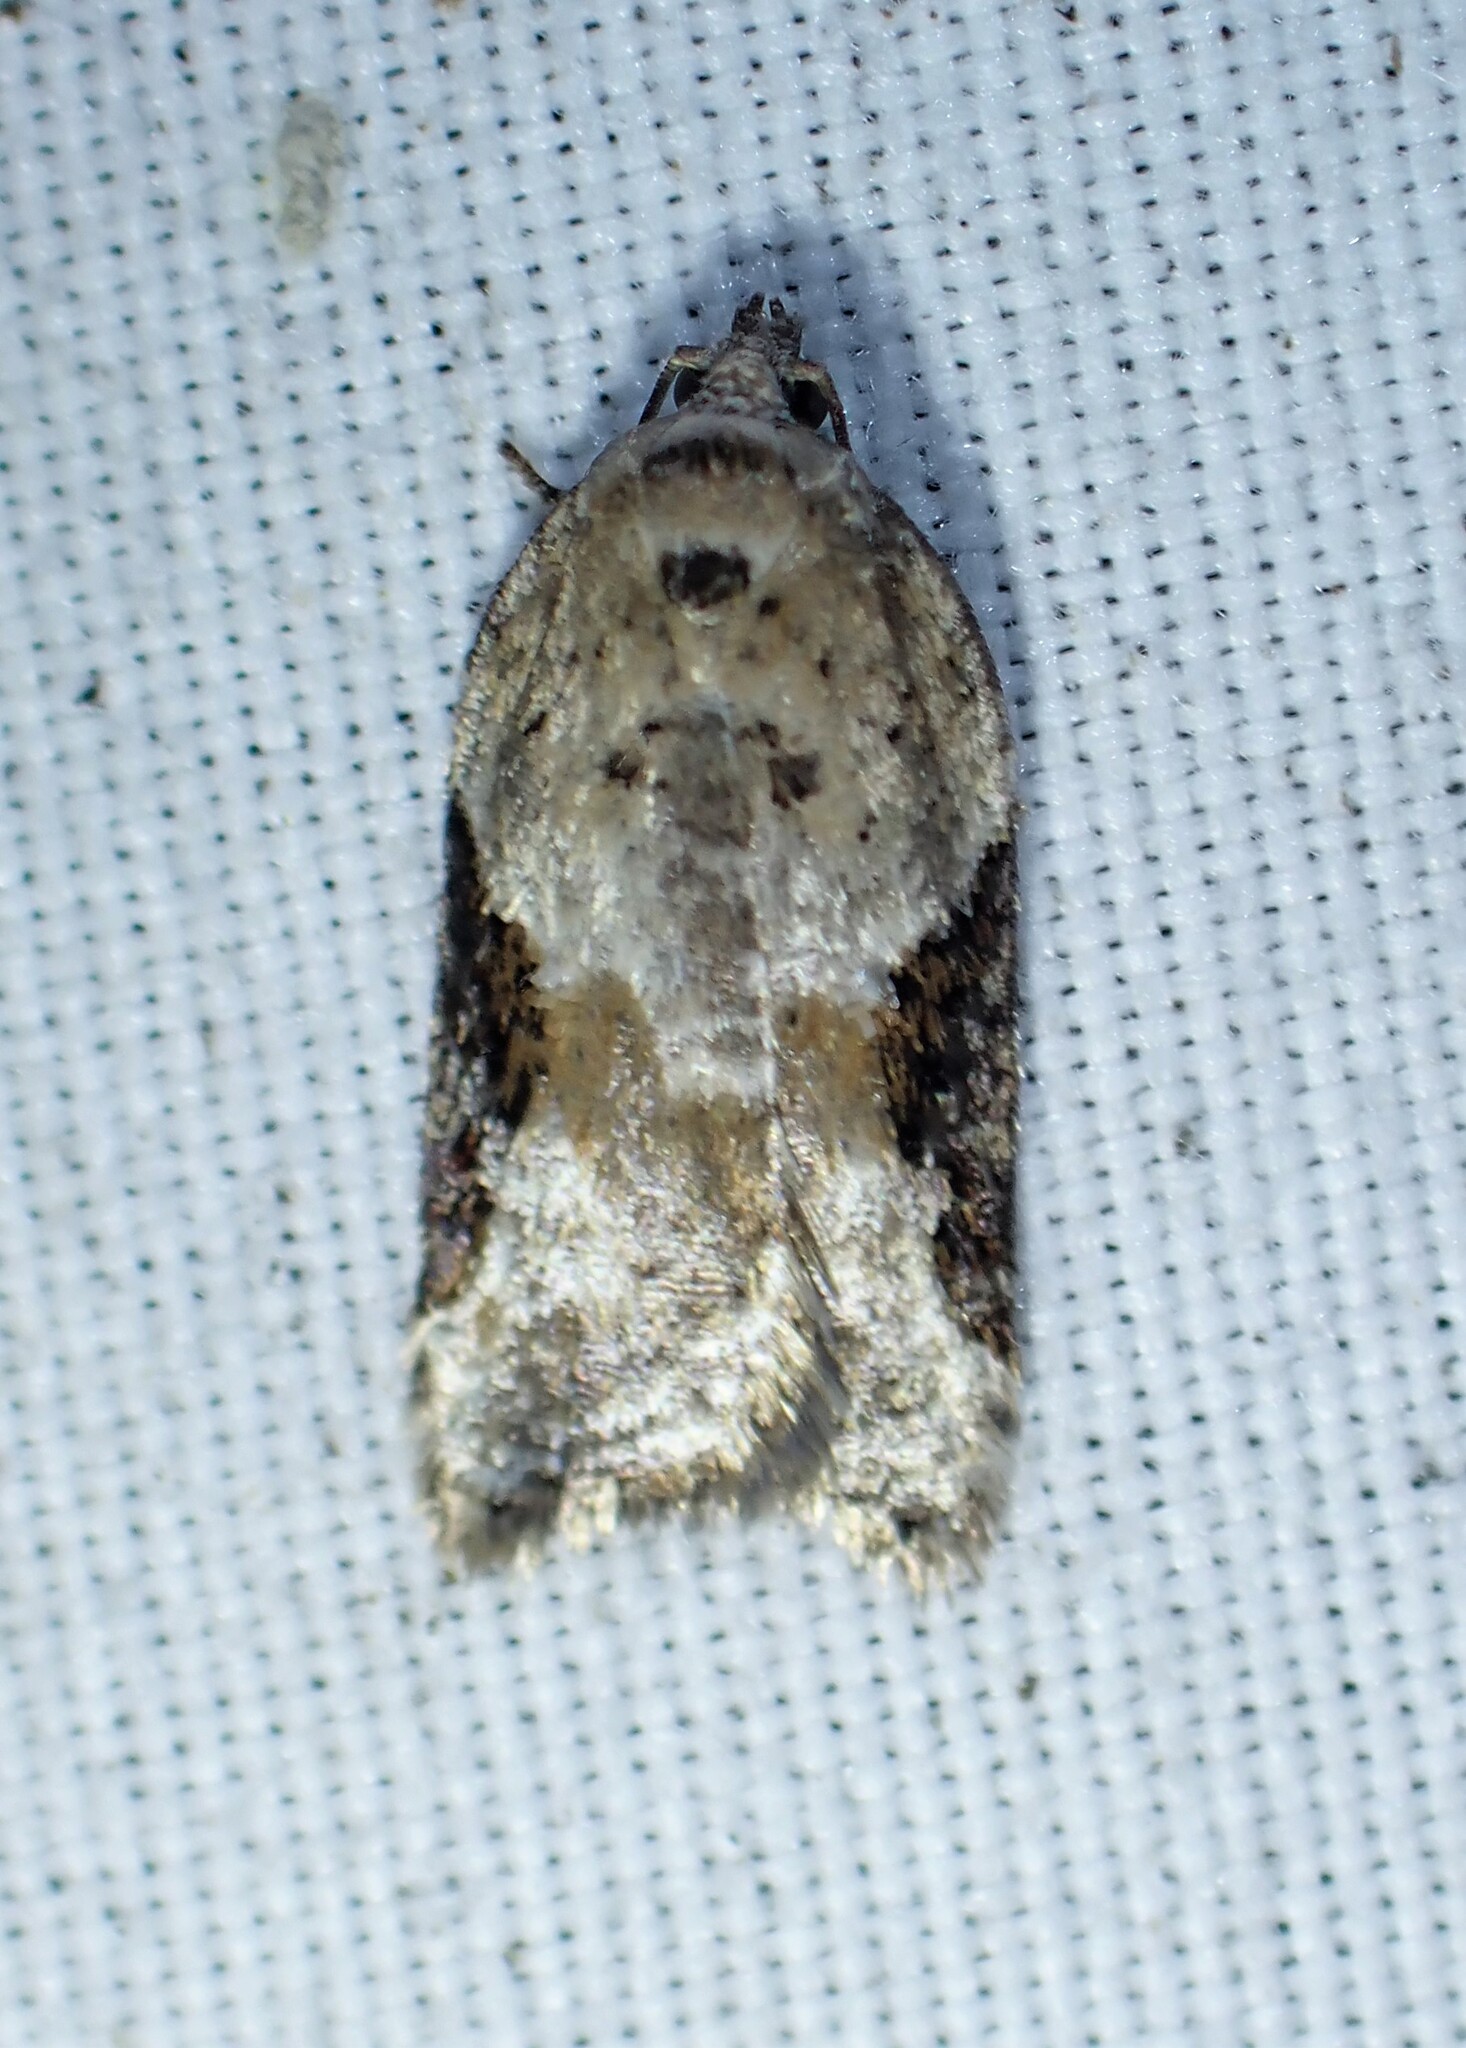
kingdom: Animalia
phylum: Arthropoda
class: Insecta
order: Lepidoptera
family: Tortricidae
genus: Acleris
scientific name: Acleris forbesana
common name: Forbes' acleris moth
